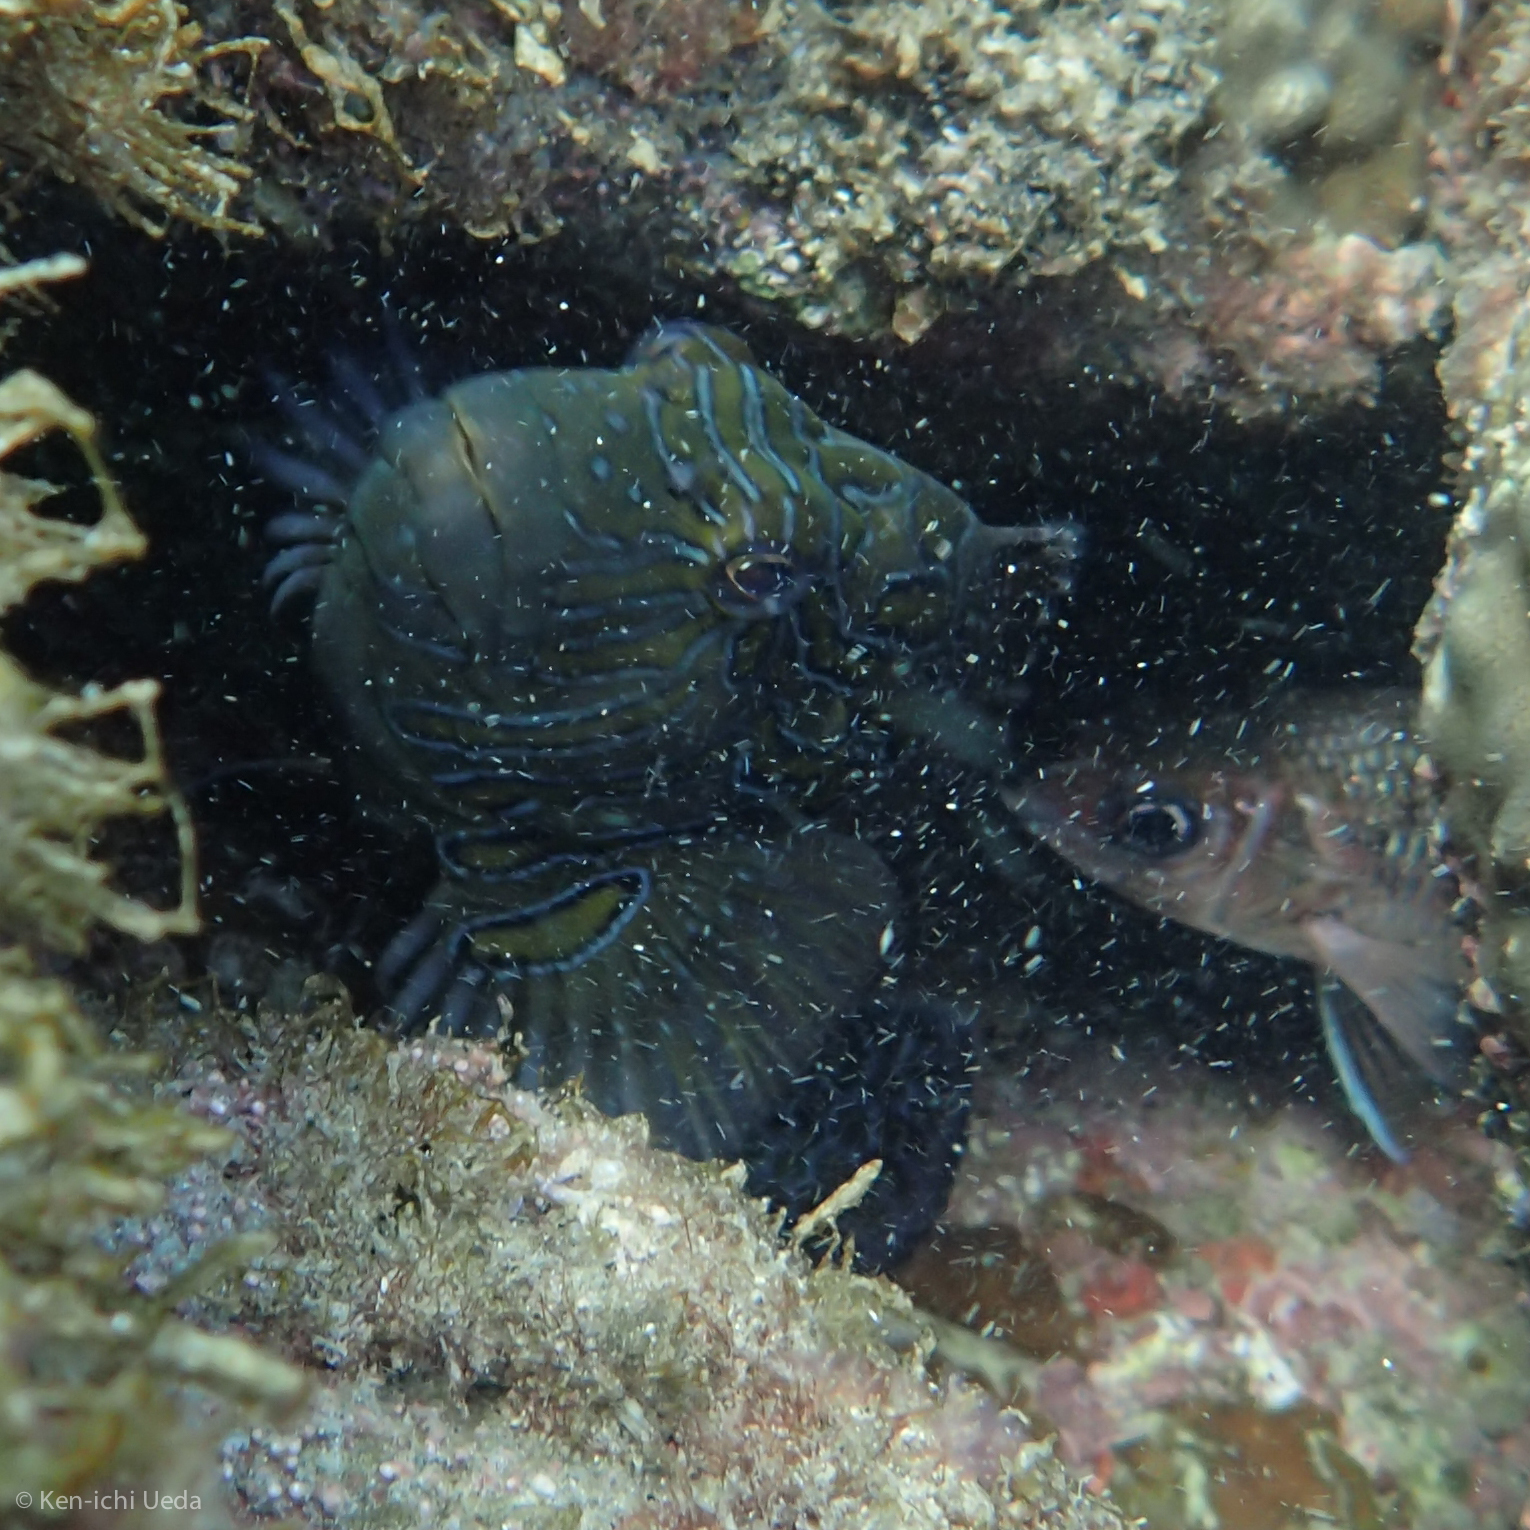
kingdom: Animalia
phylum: Chordata
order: Perciformes
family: Cirrhitidae
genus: Cirrhitus
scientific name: Cirrhitus rivulatus
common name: Giant hawkfish
